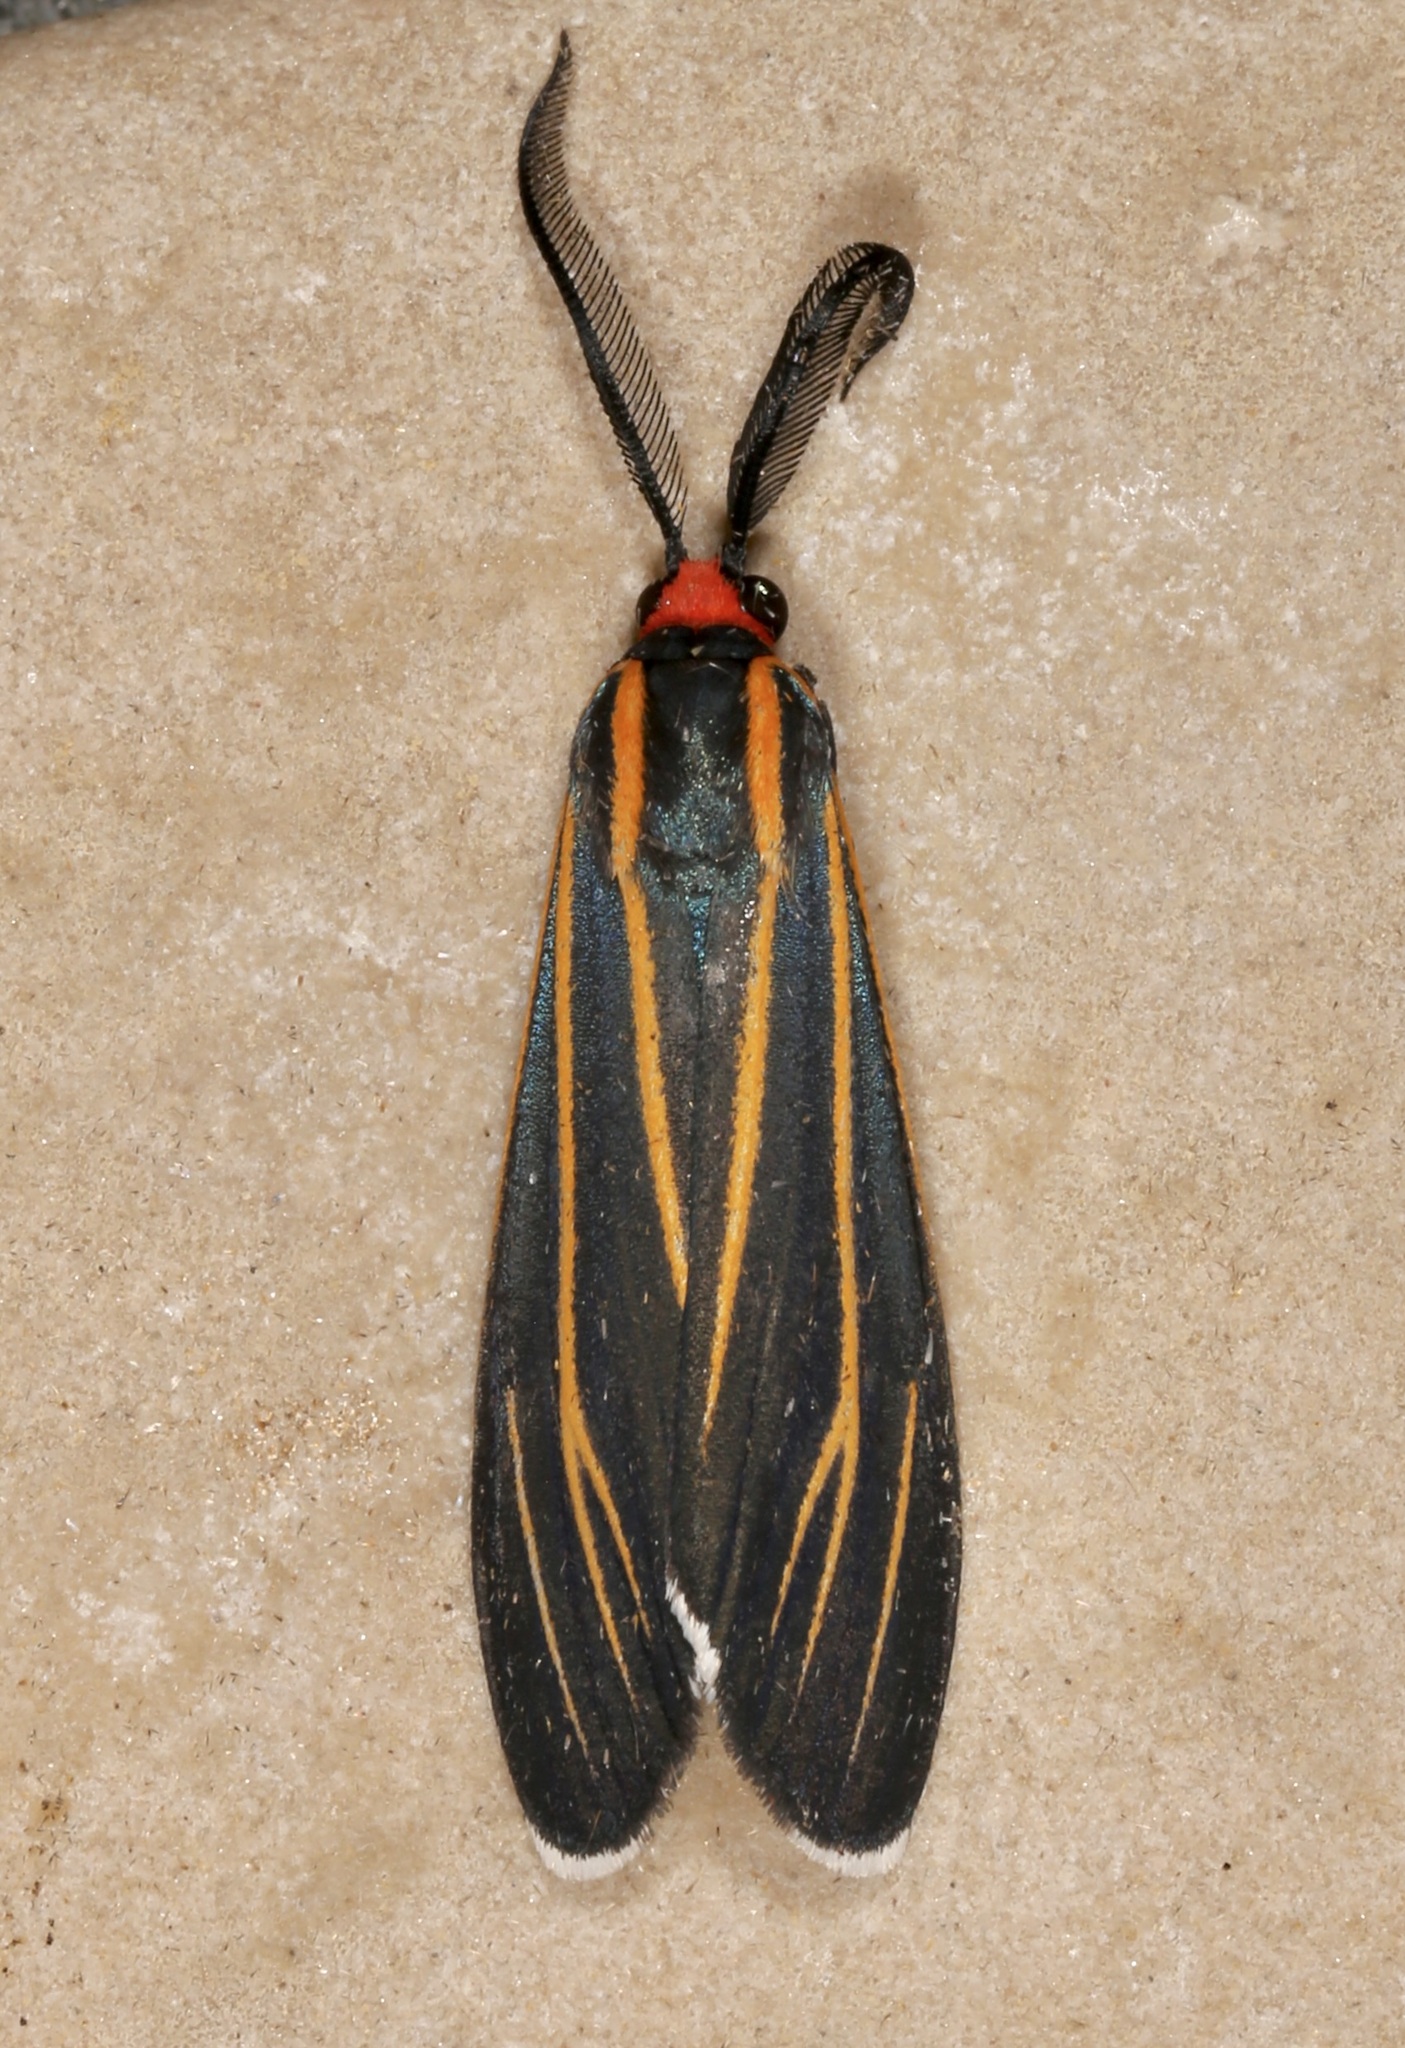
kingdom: Animalia
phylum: Arthropoda
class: Insecta
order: Lepidoptera
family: Erebidae
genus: Ctenucha
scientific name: Ctenucha venosa
